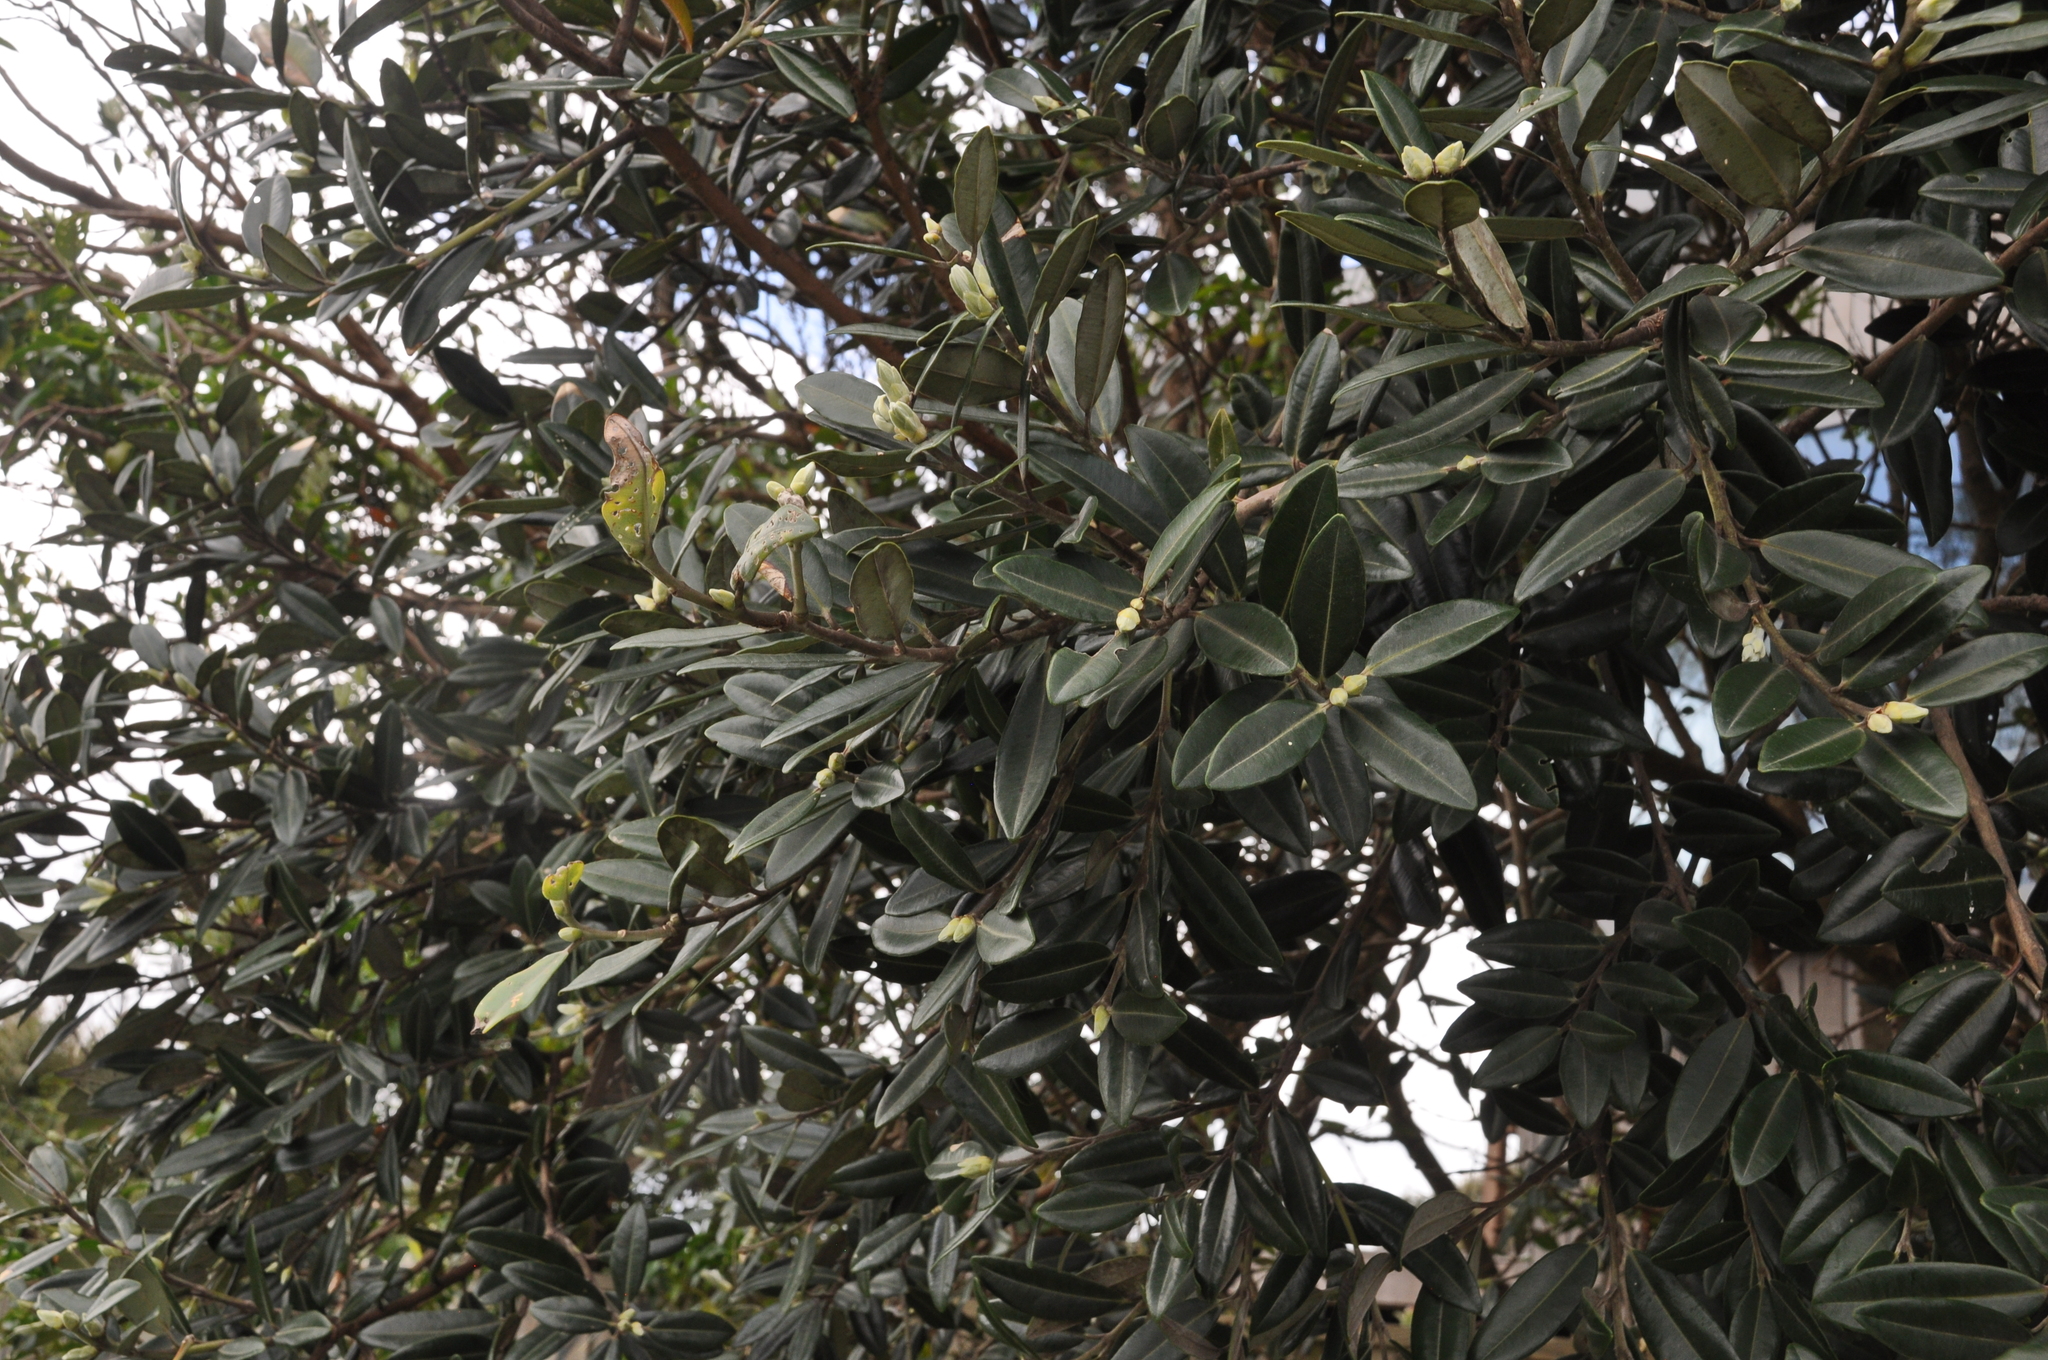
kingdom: Plantae
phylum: Tracheophyta
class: Magnoliopsida
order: Myrtales
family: Myrtaceae
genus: Metrosideros
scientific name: Metrosideros excelsa
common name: New zealand christmastree
